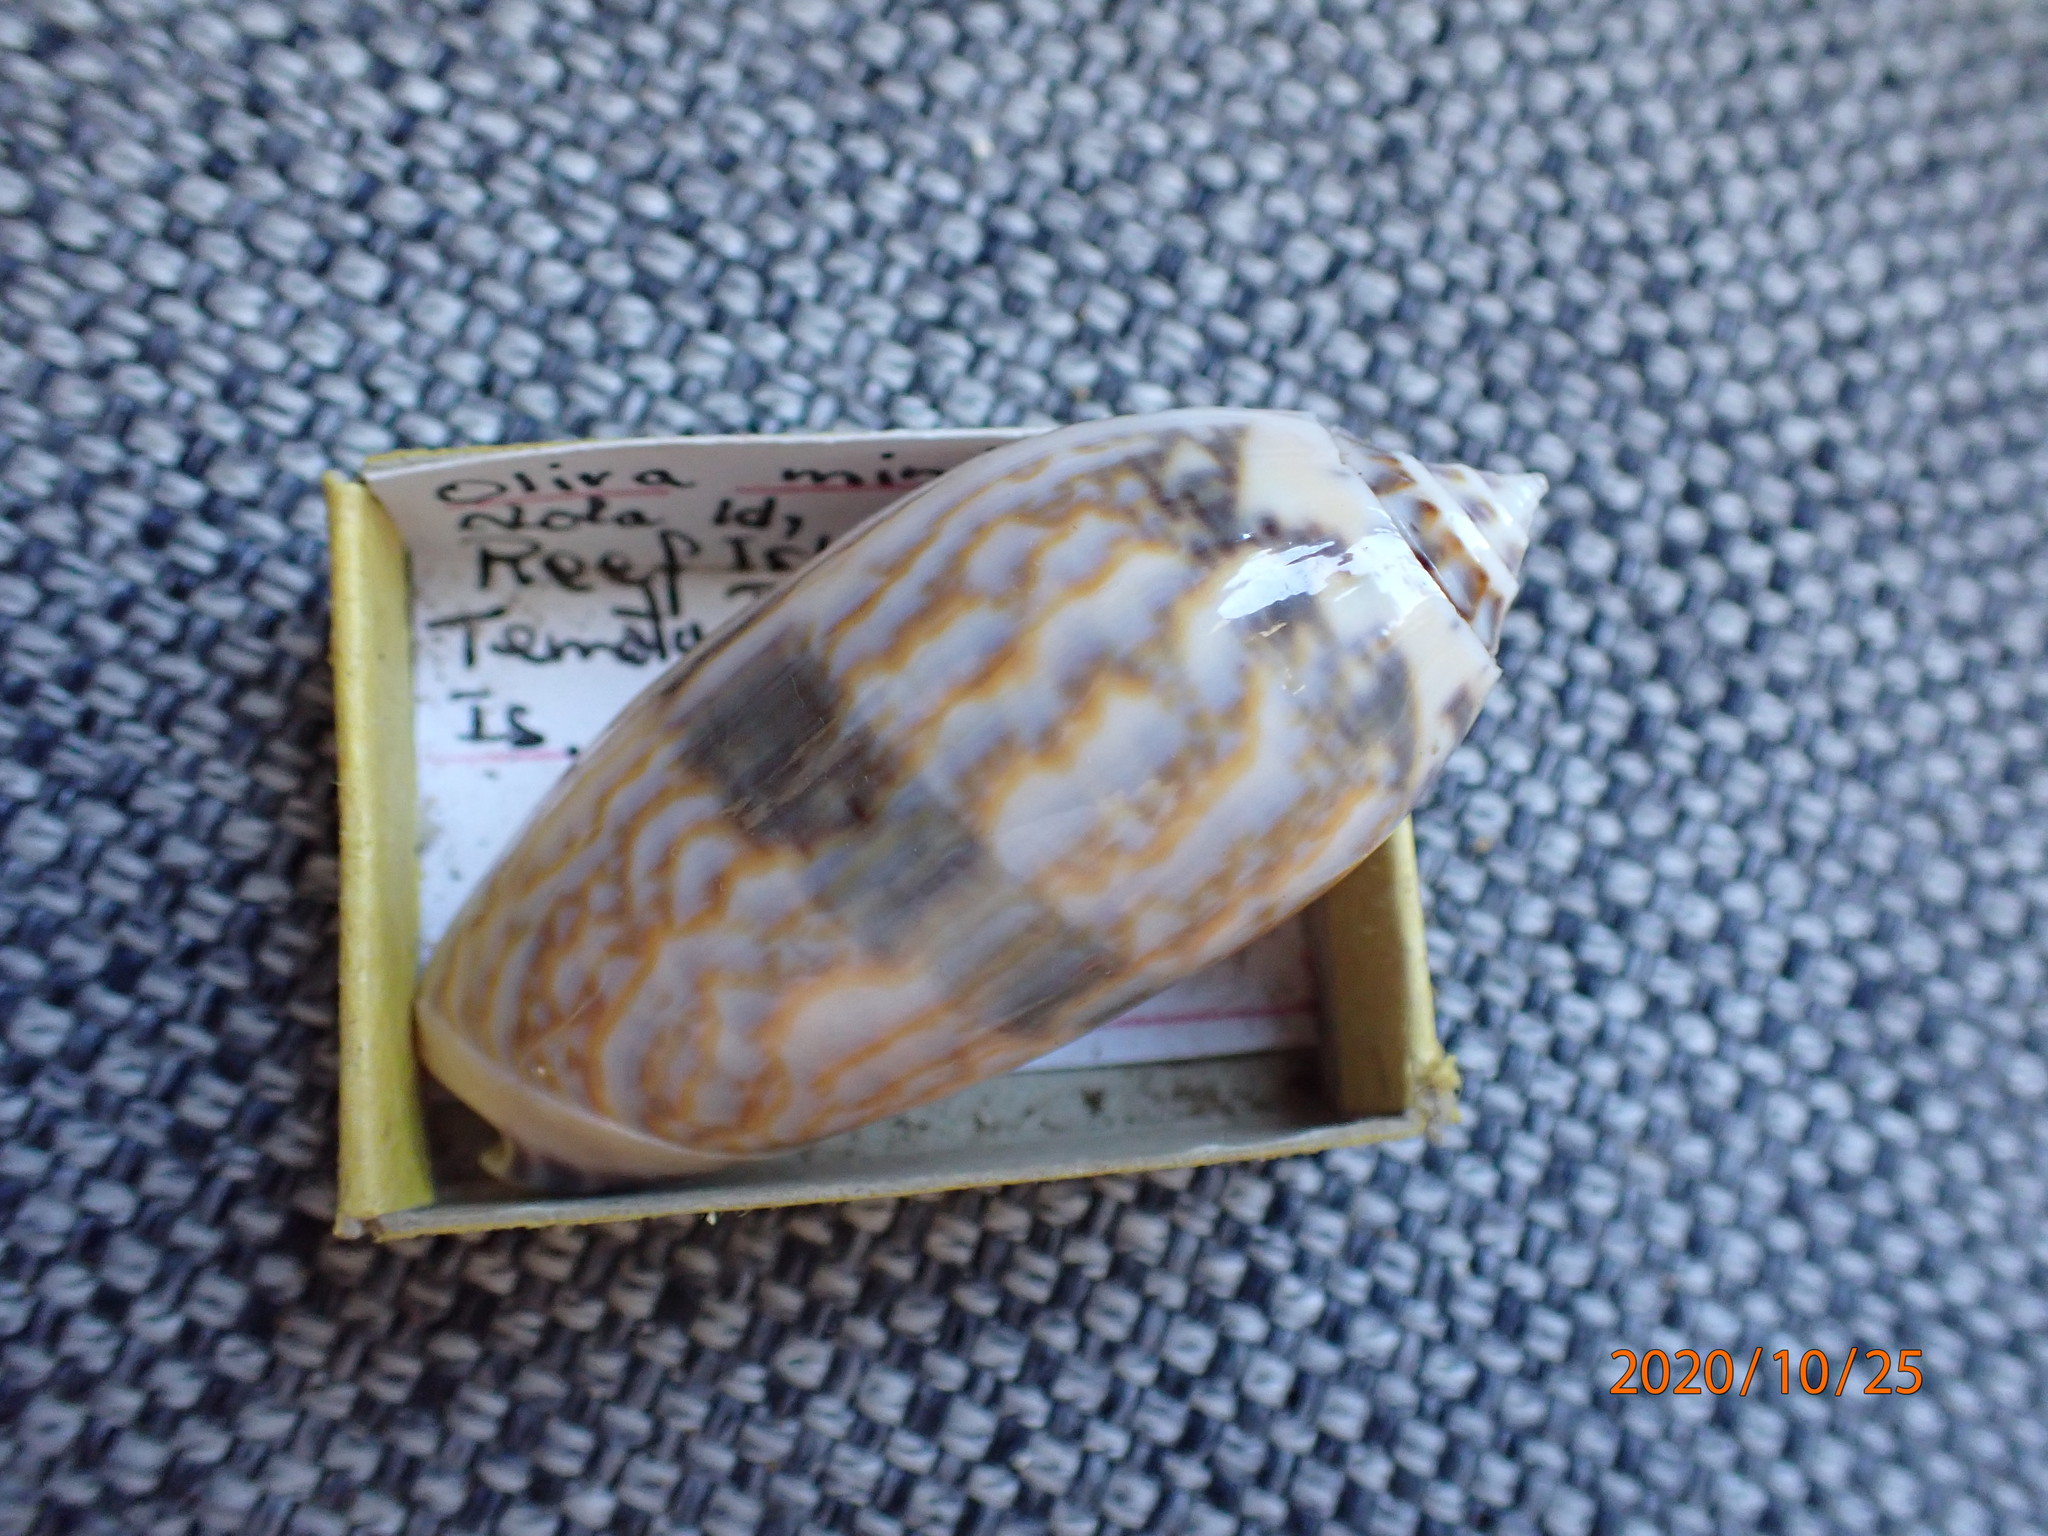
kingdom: Animalia
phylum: Mollusca
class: Gastropoda
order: Neogastropoda
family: Olividae
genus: Oliva
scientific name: Oliva miniacea
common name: Pacific common olive
